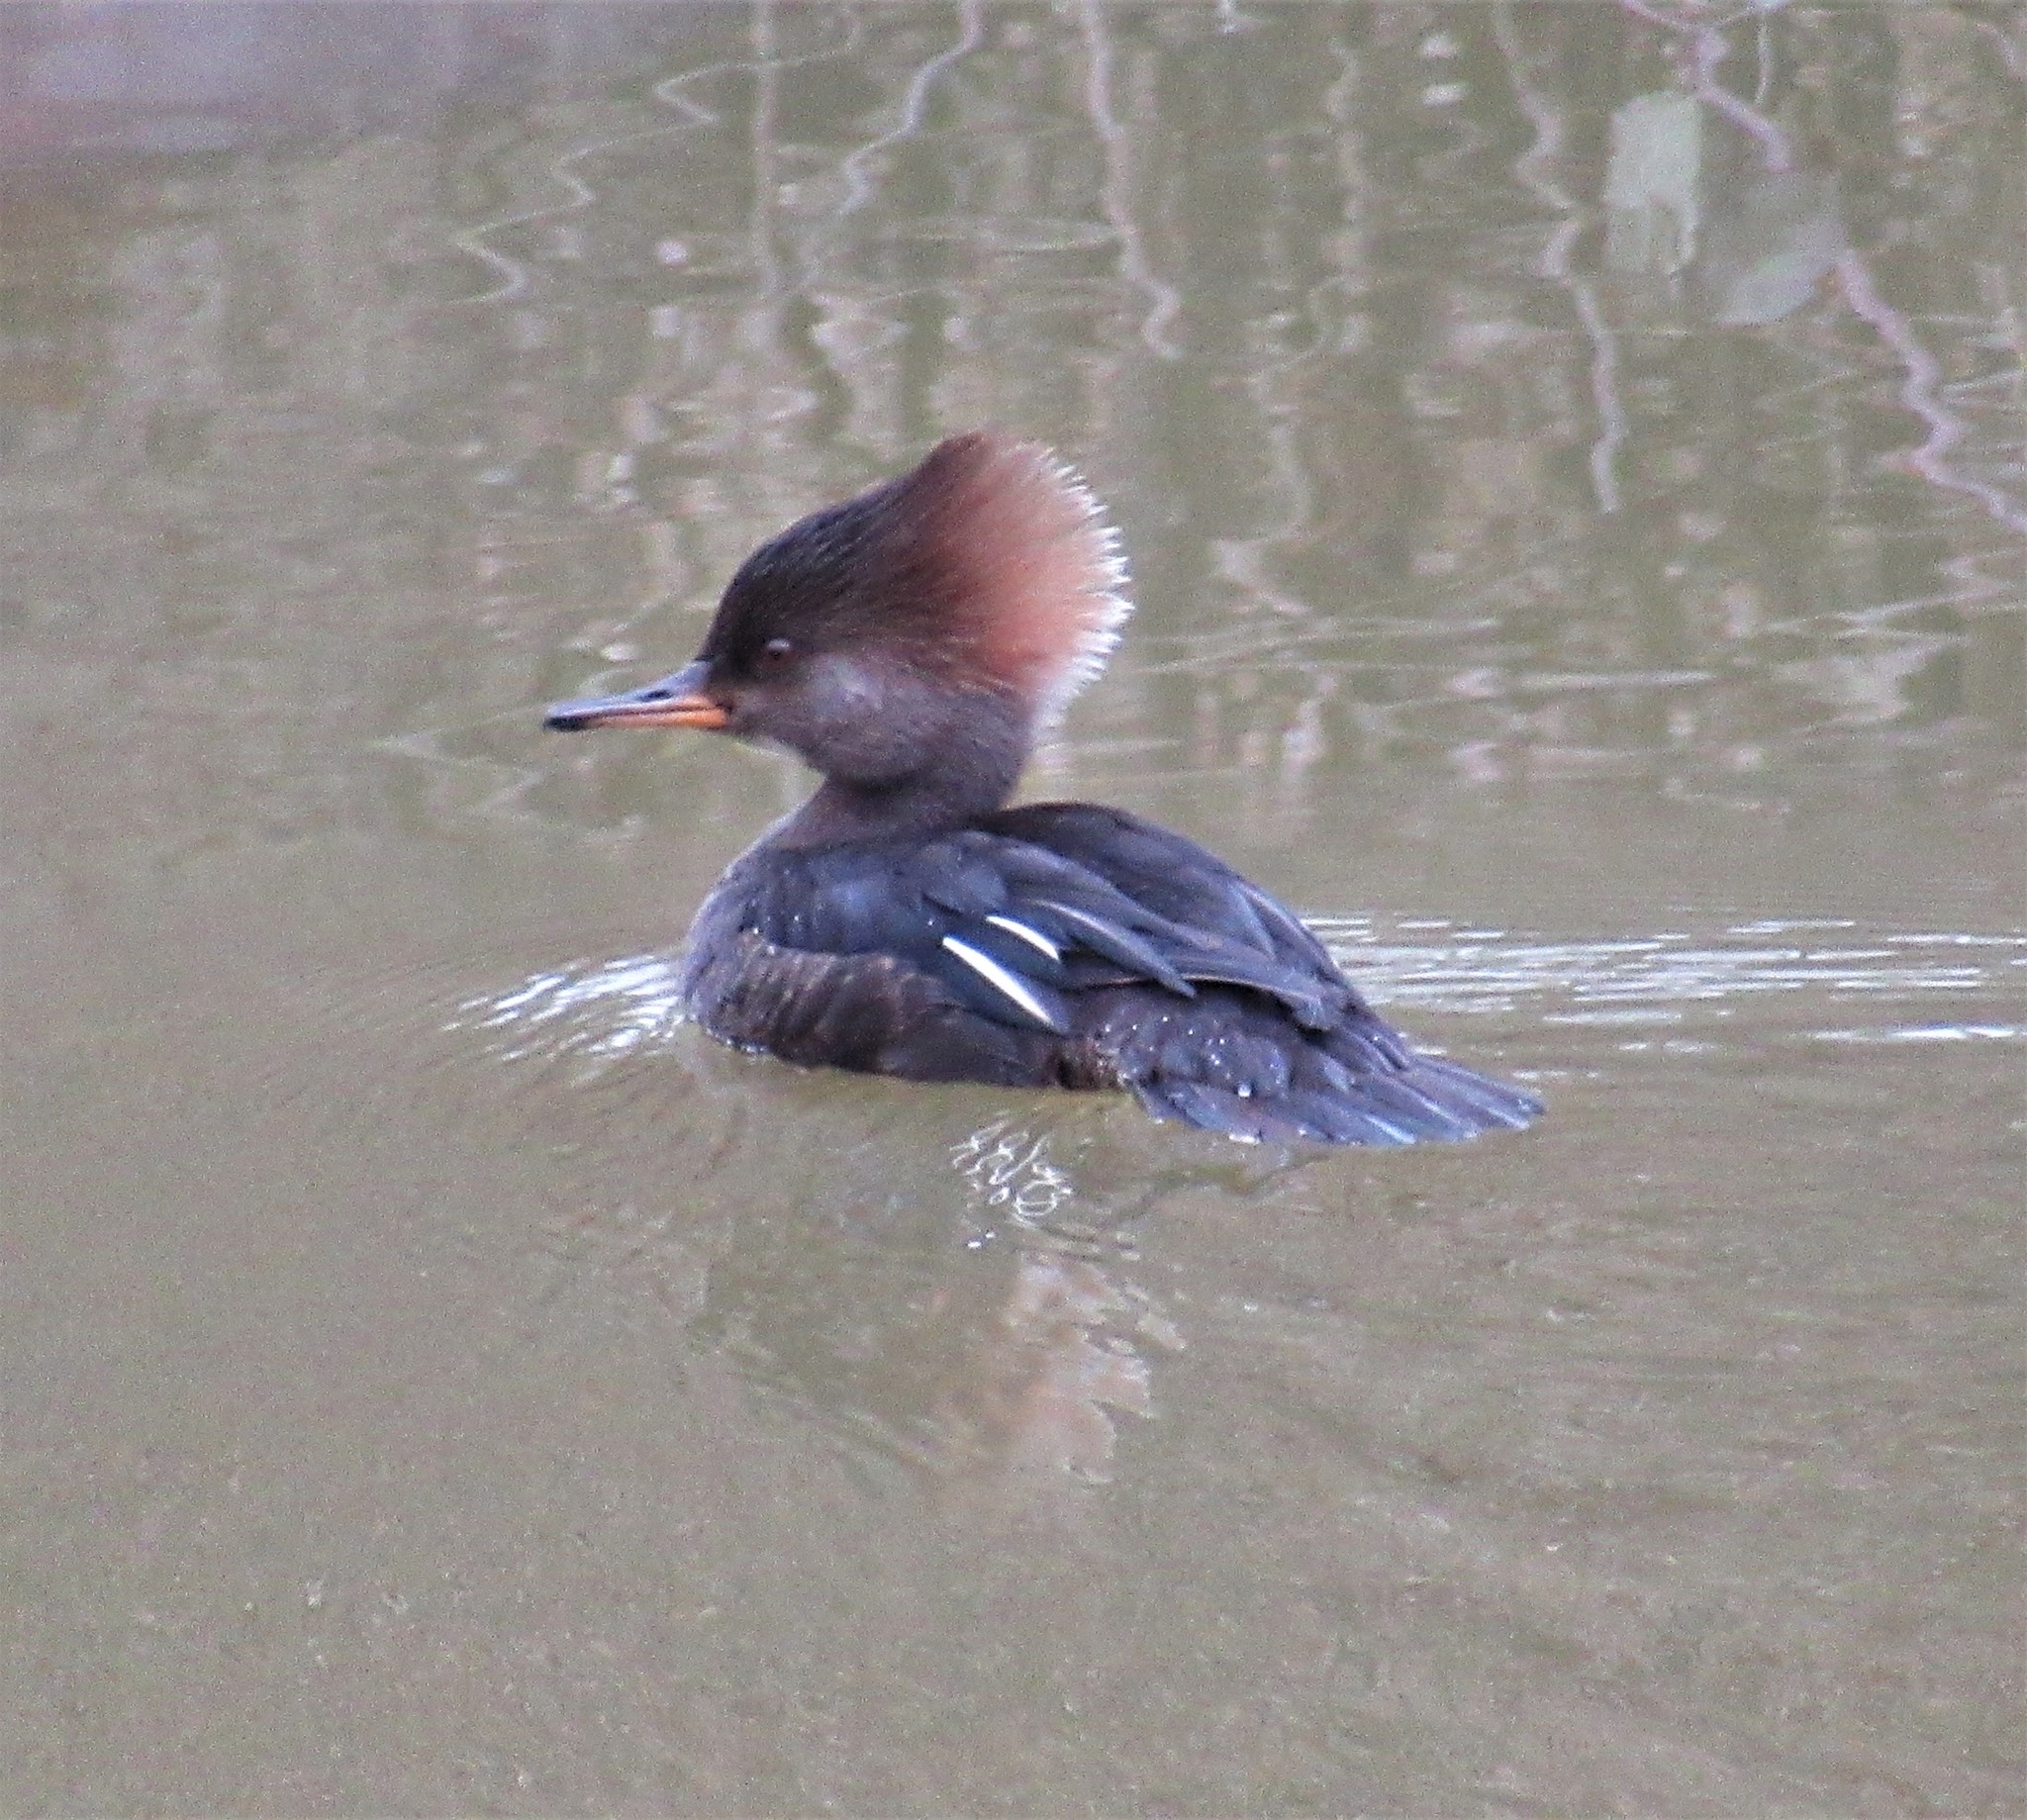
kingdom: Animalia
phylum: Chordata
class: Aves
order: Anseriformes
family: Anatidae
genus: Lophodytes
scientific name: Lophodytes cucullatus
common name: Hooded merganser
